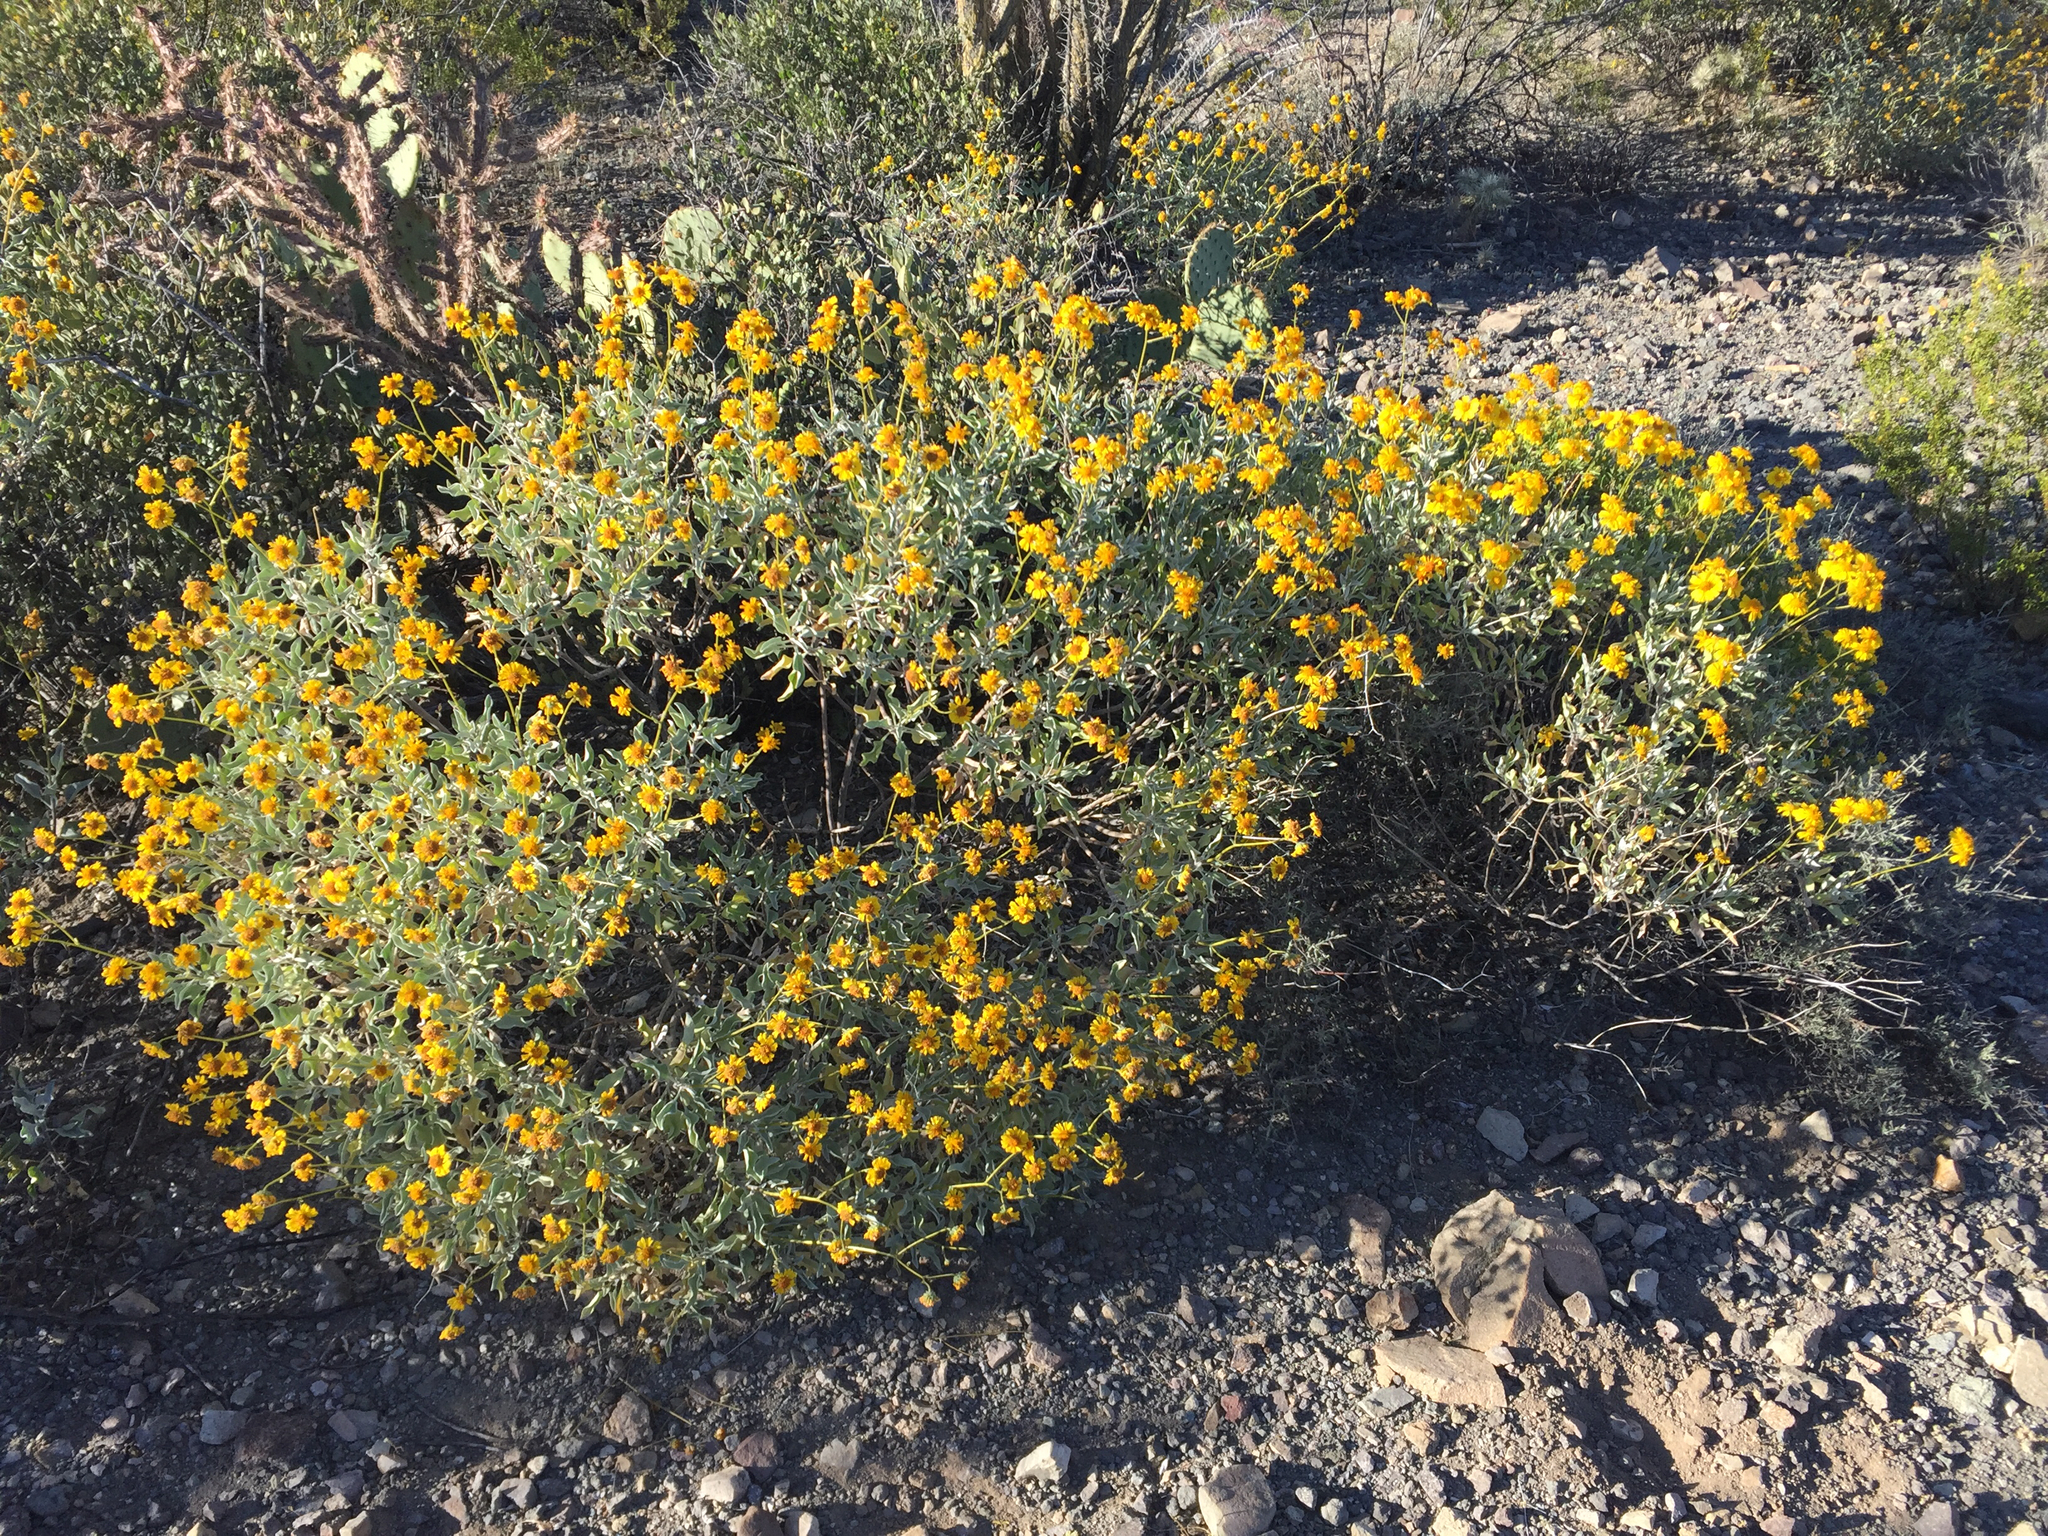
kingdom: Plantae
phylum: Tracheophyta
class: Magnoliopsida
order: Asterales
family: Asteraceae
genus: Encelia
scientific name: Encelia farinosa
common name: Brittlebush
